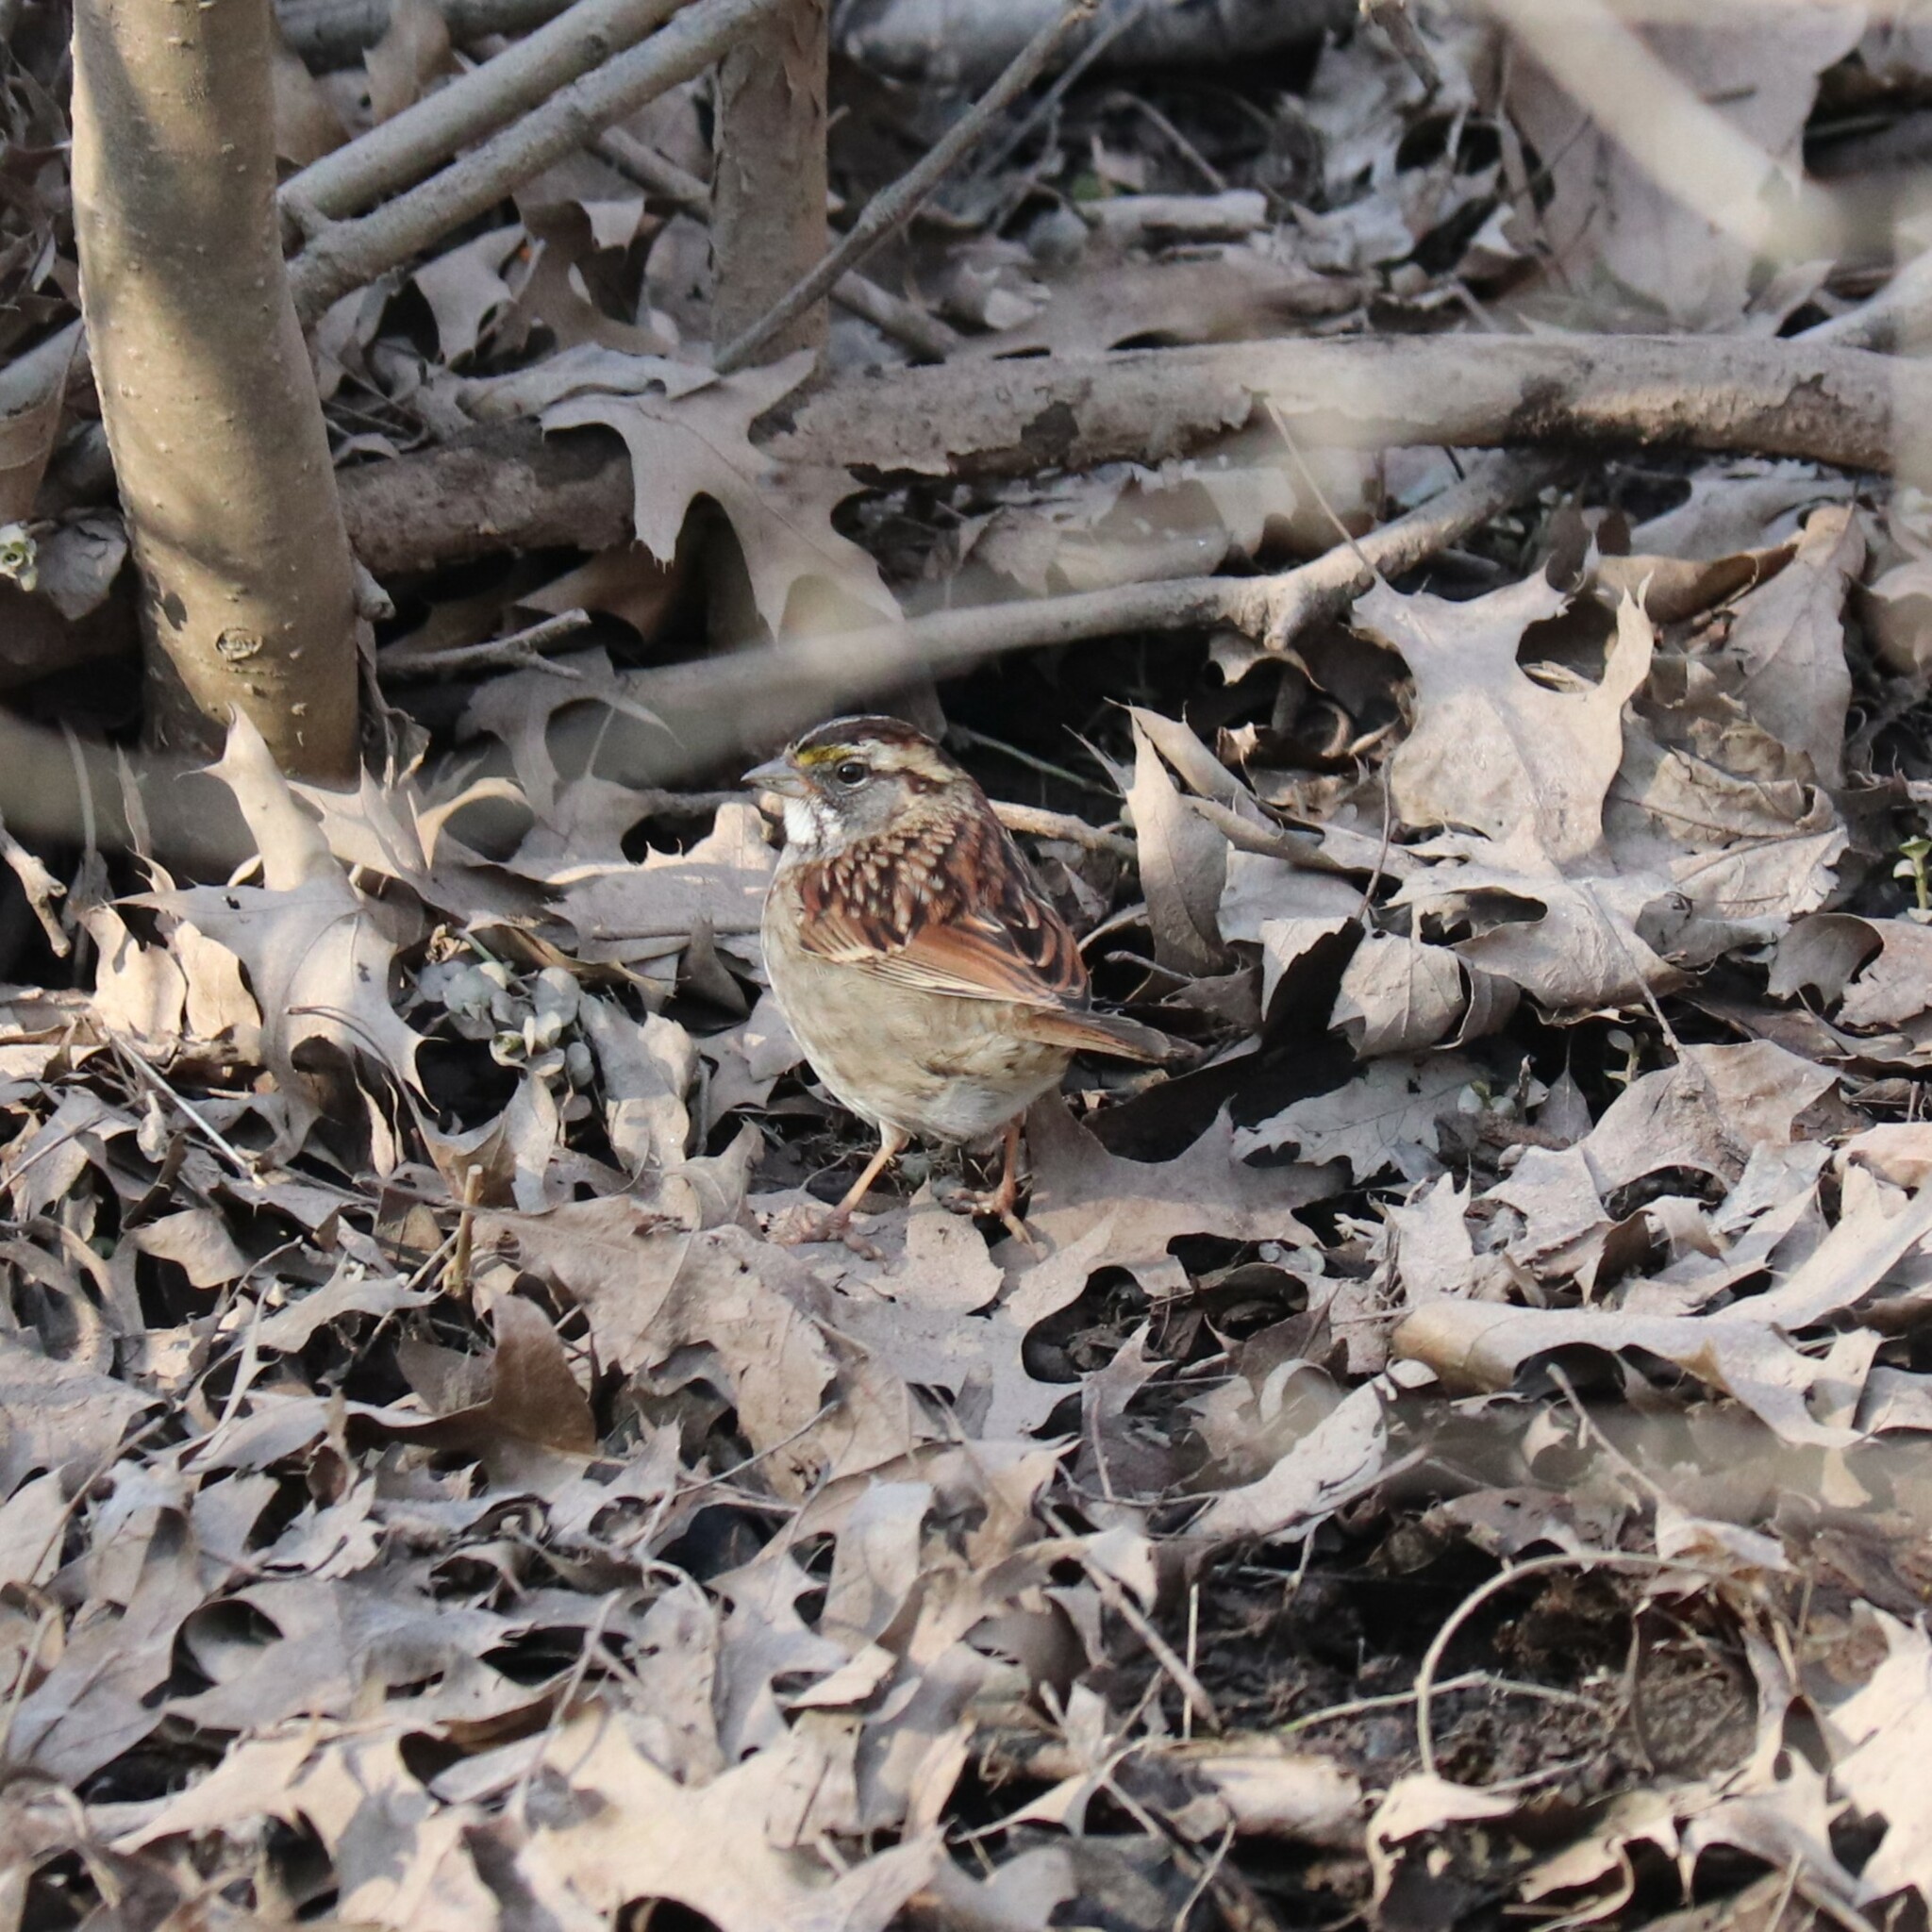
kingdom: Animalia
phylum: Chordata
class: Aves
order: Passeriformes
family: Passerellidae
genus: Zonotrichia
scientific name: Zonotrichia albicollis
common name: White-throated sparrow
